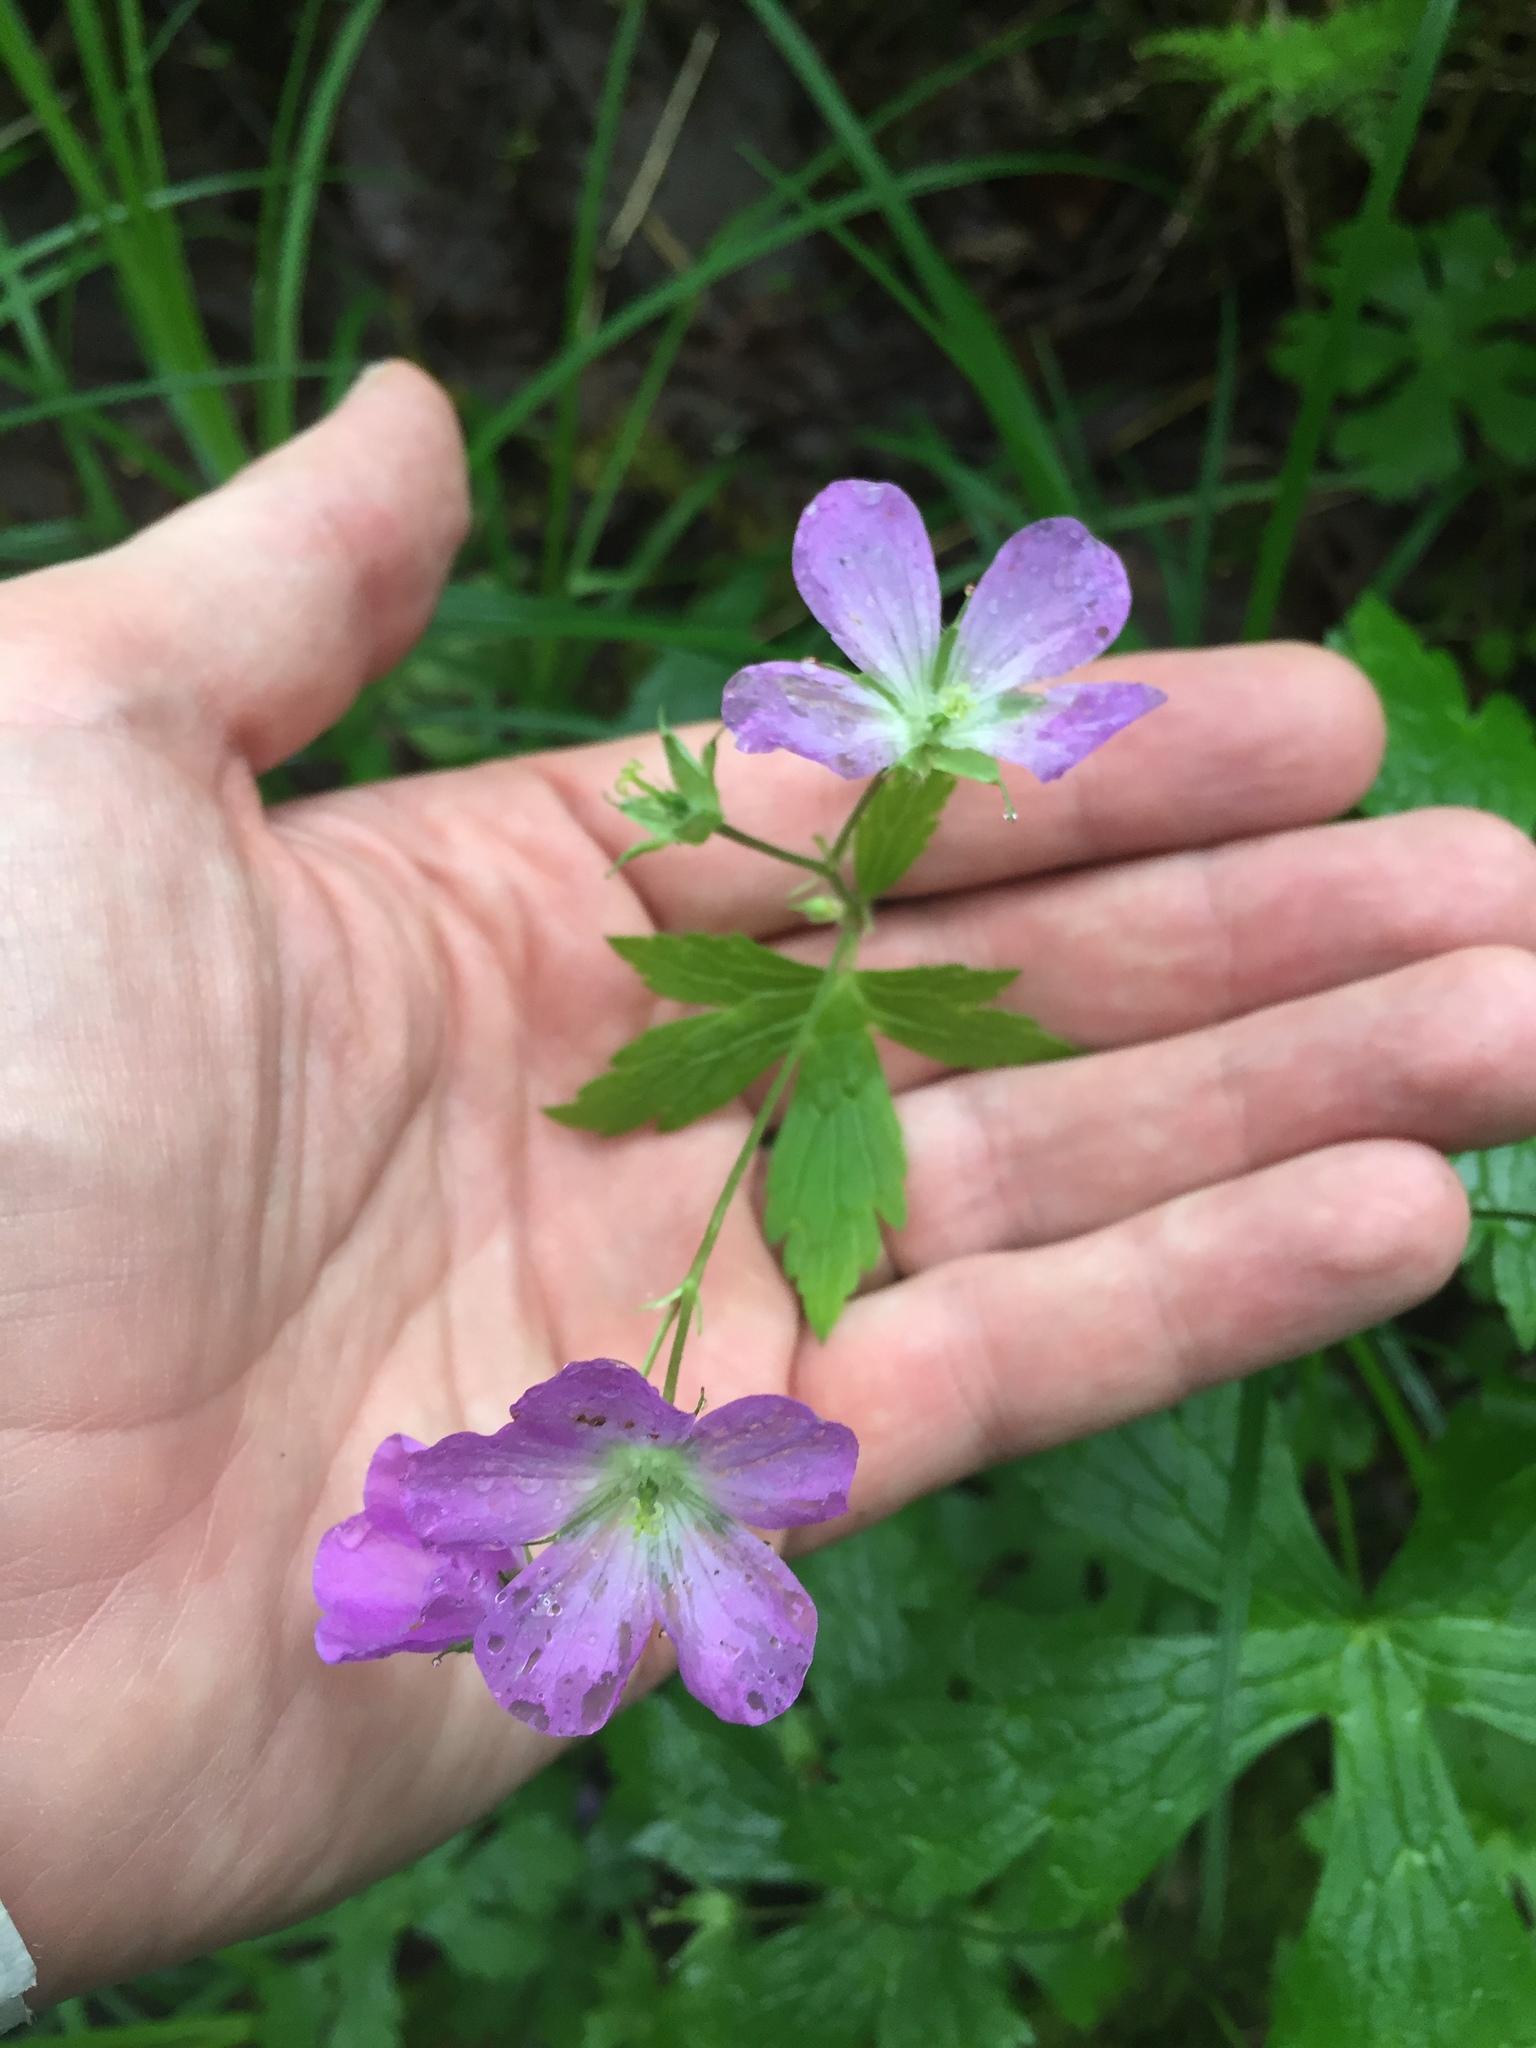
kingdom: Plantae
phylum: Tracheophyta
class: Magnoliopsida
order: Geraniales
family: Geraniaceae
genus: Geranium
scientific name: Geranium maculatum
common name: Spotted geranium
